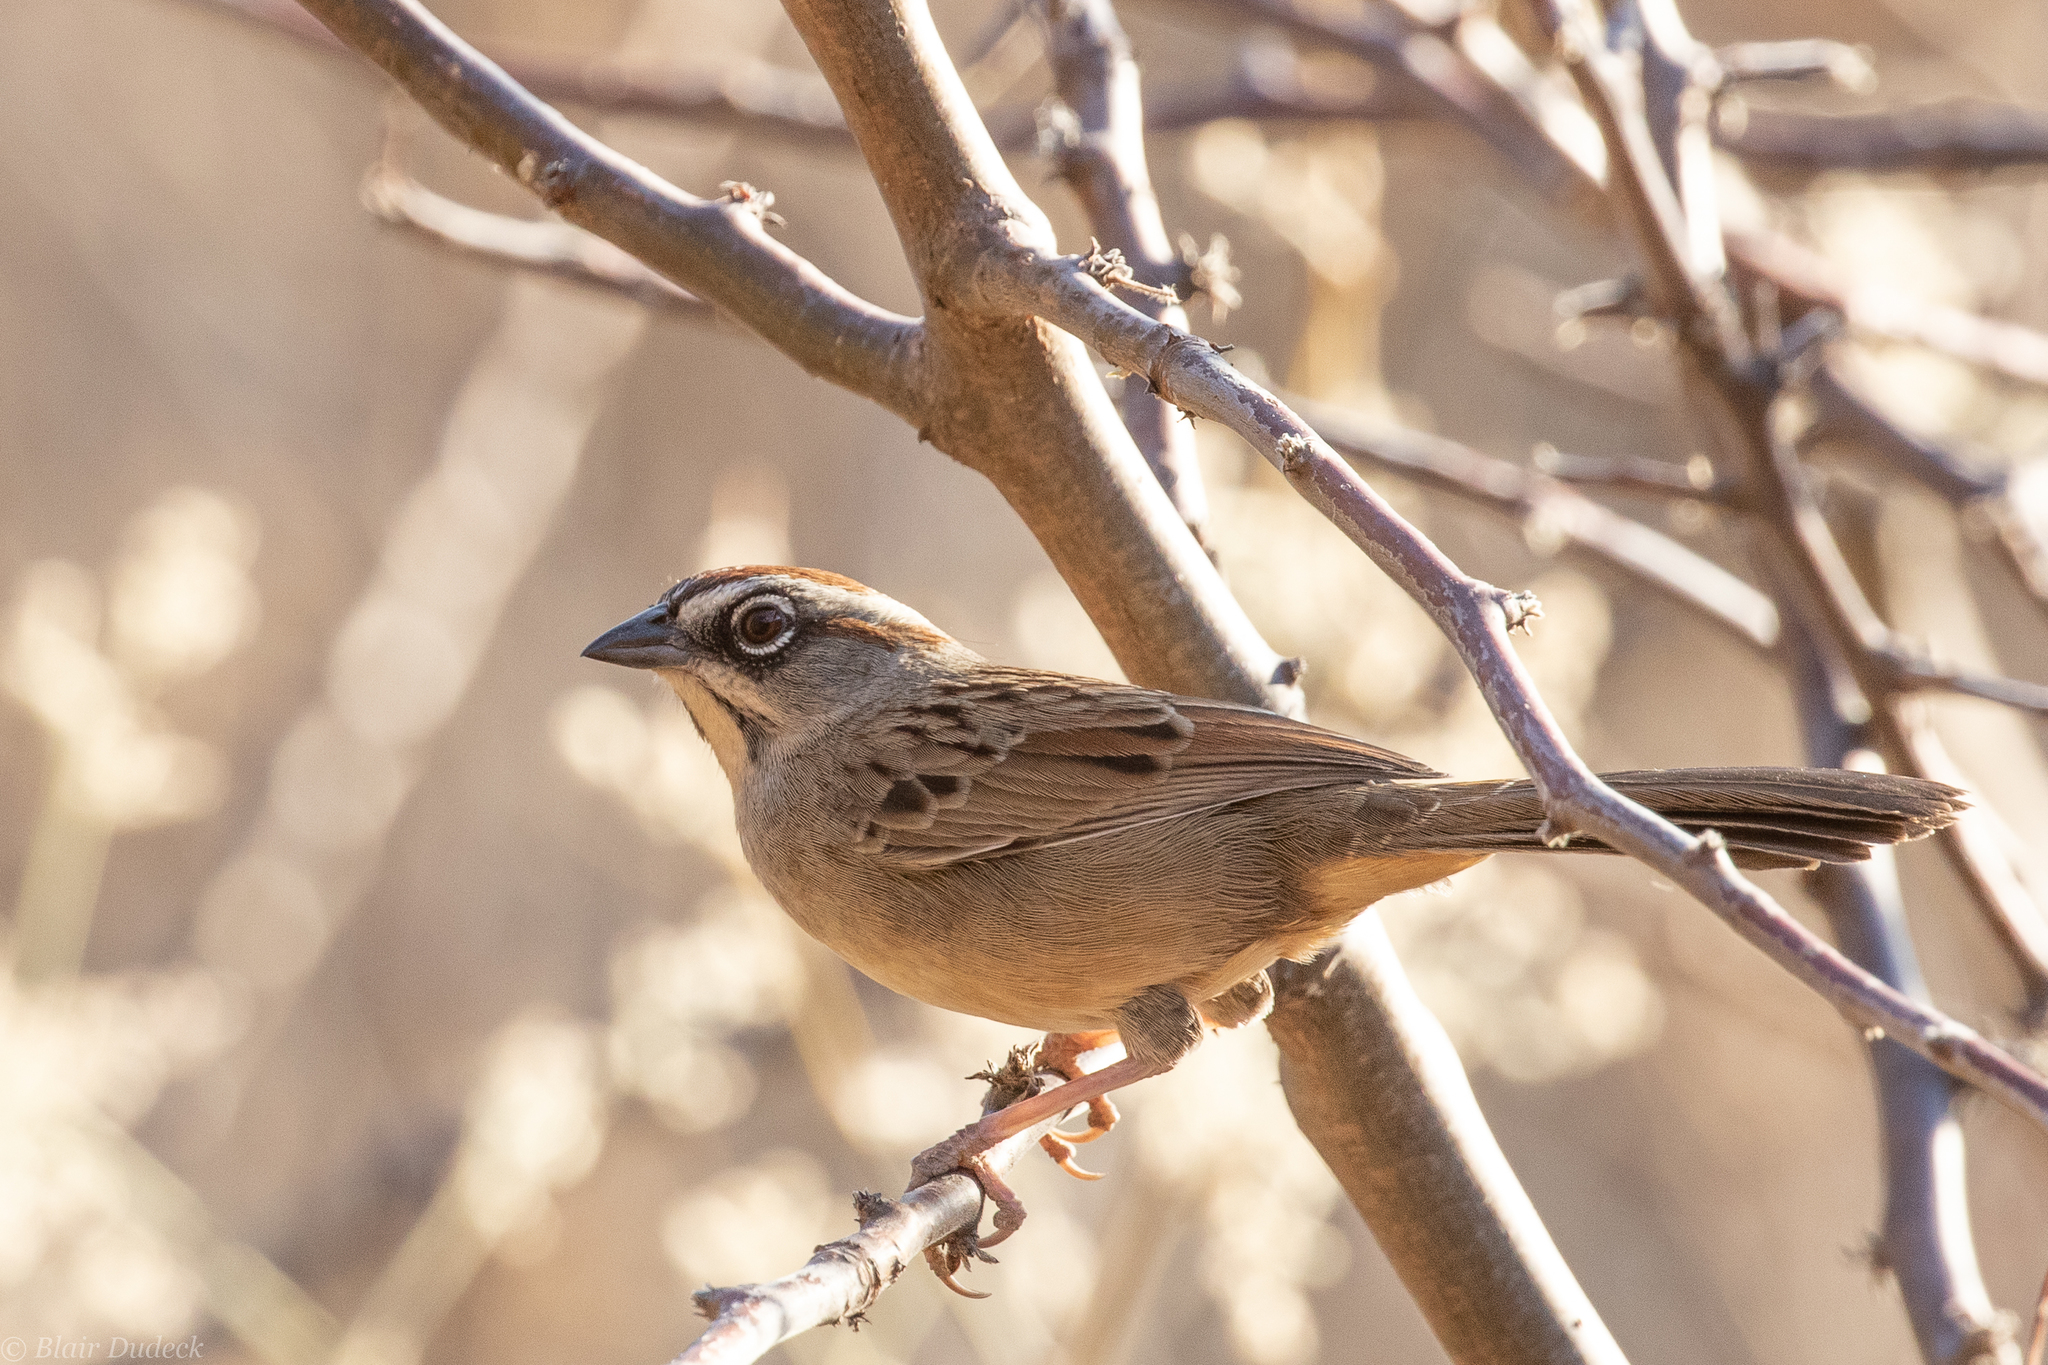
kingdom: Animalia
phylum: Chordata
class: Aves
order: Passeriformes
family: Passerellidae
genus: Aimophila
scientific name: Aimophila notosticta
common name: Oaxaca sparrow
